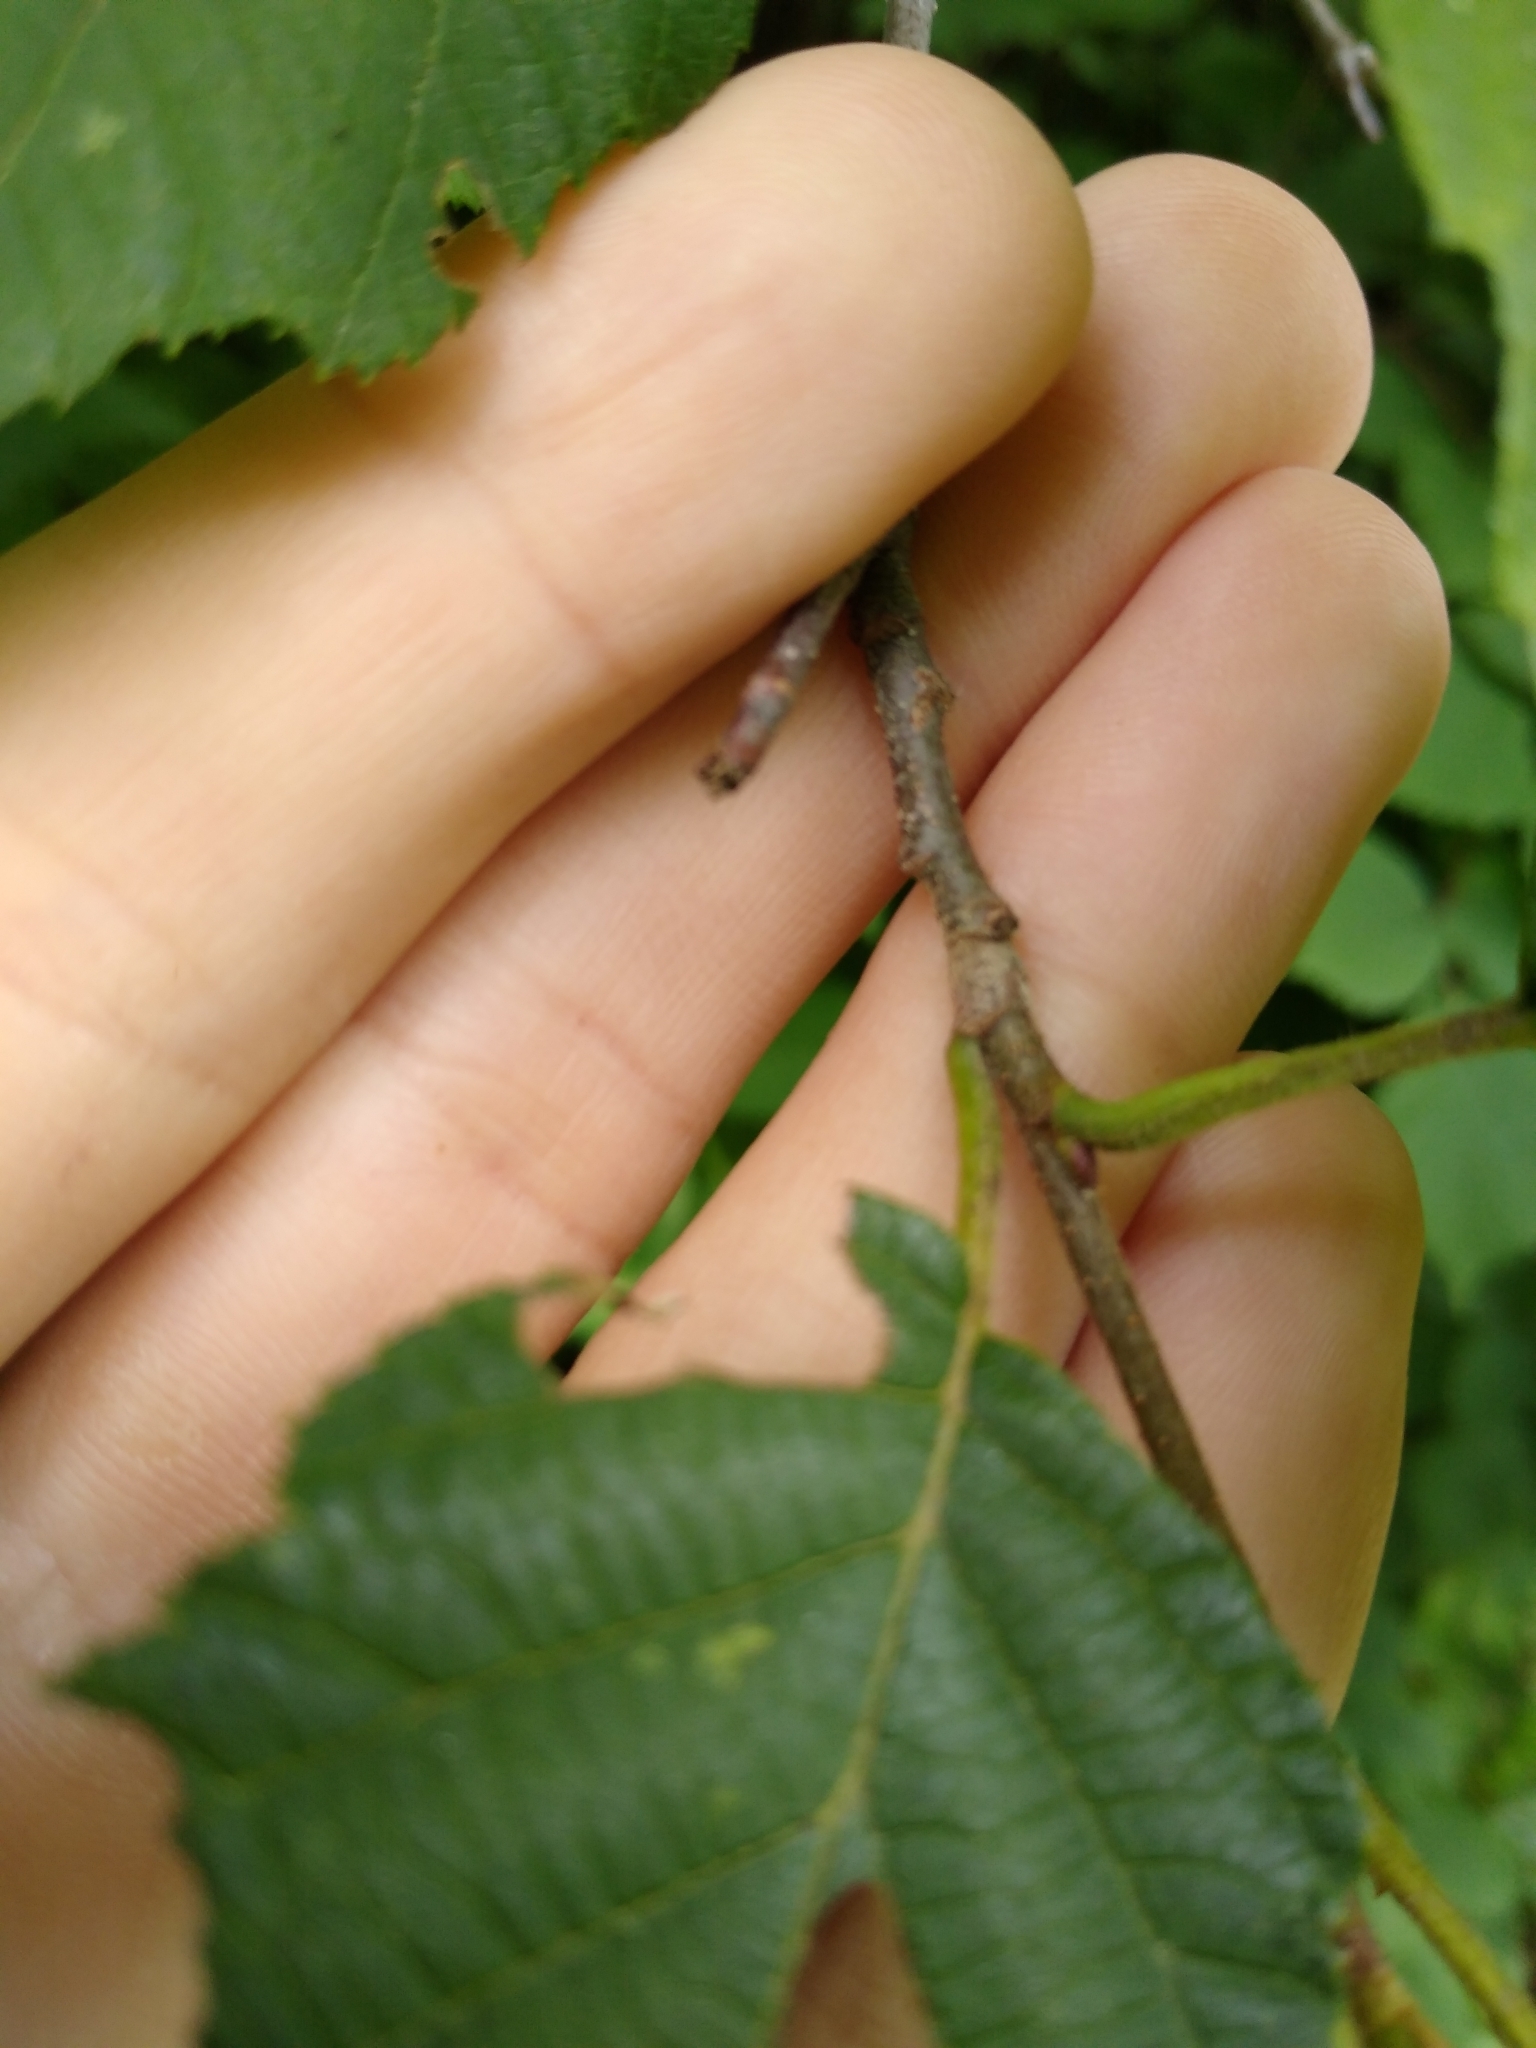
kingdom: Plantae
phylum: Tracheophyta
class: Magnoliopsida
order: Fagales
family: Betulaceae
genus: Alnus
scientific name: Alnus incana
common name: Grey alder
